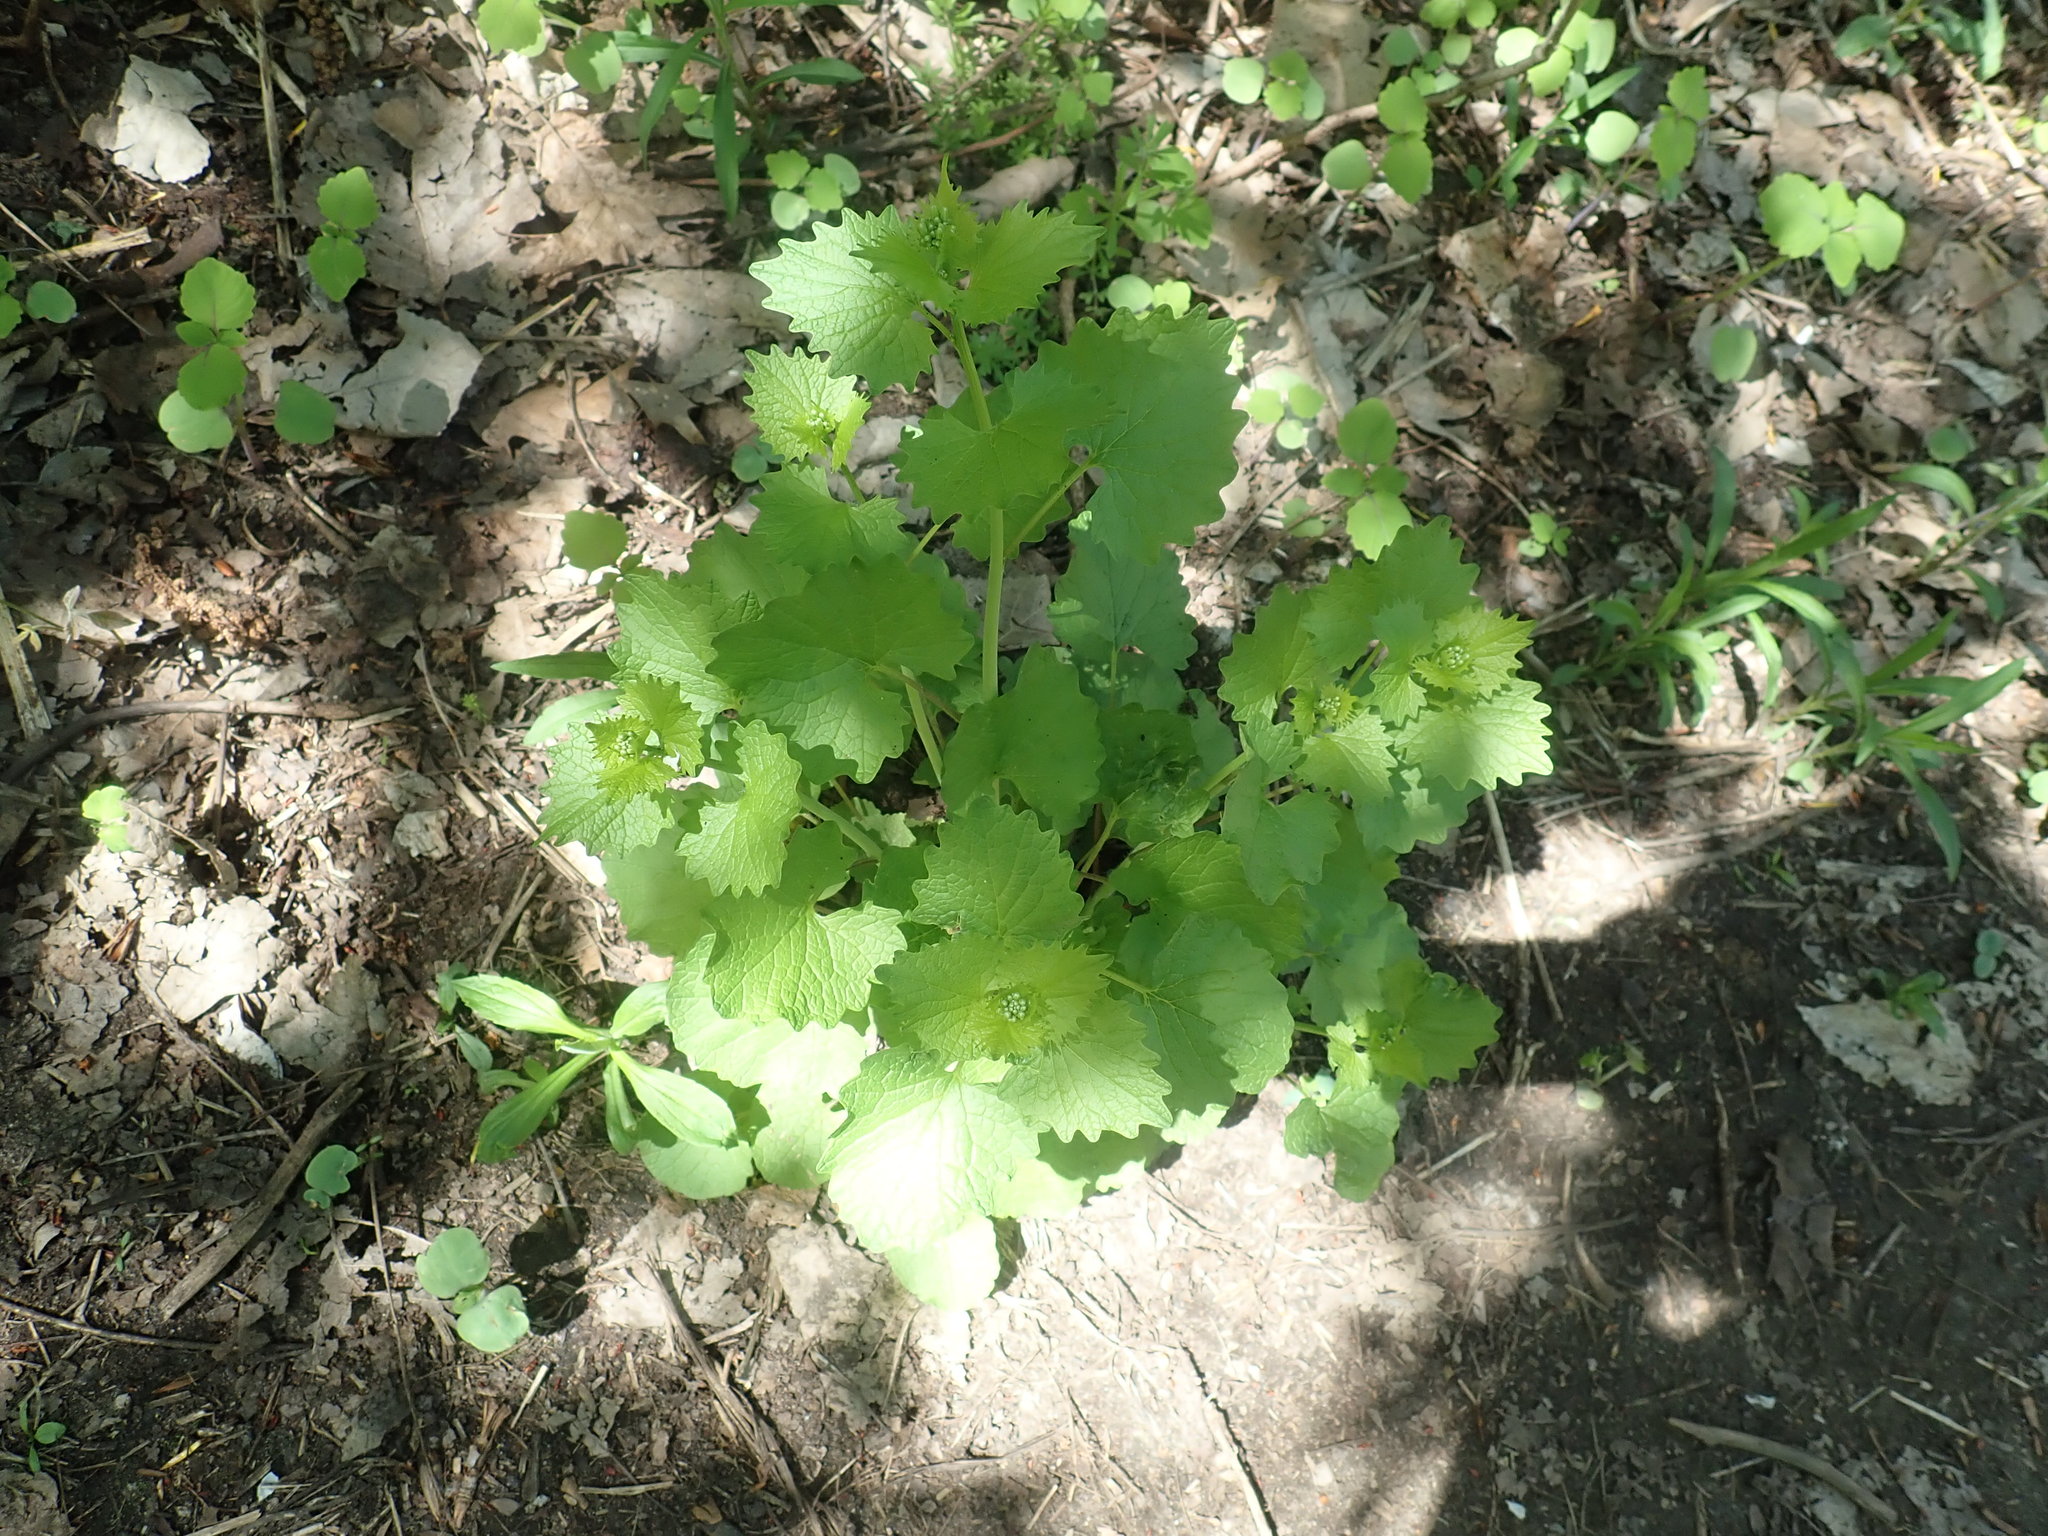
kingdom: Plantae
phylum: Tracheophyta
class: Magnoliopsida
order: Brassicales
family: Brassicaceae
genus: Alliaria
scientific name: Alliaria petiolata
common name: Garlic mustard
